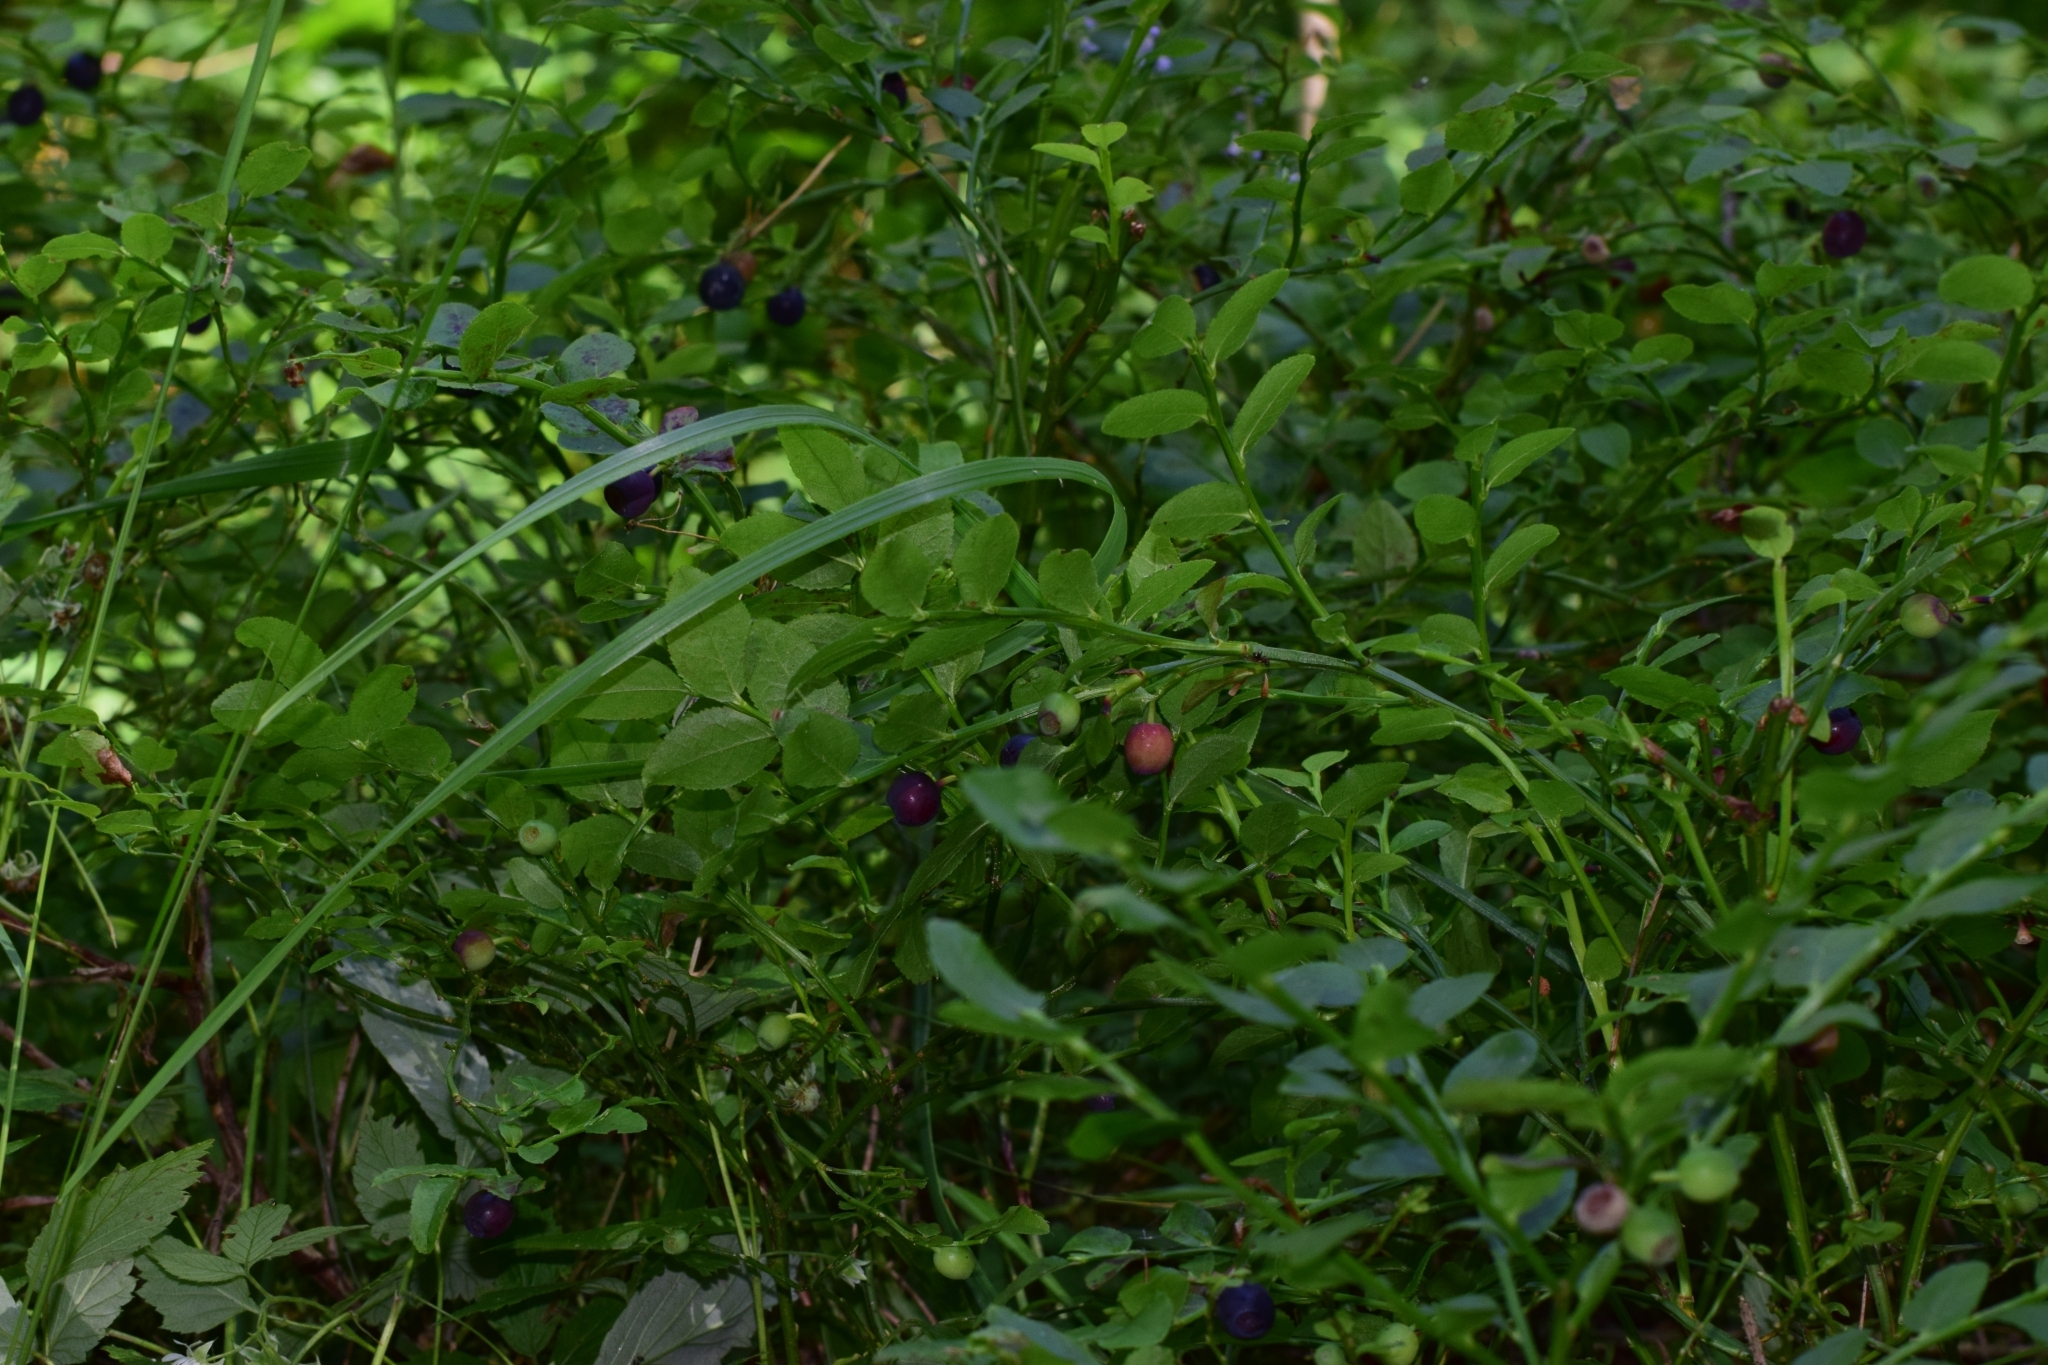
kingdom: Plantae
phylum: Tracheophyta
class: Magnoliopsida
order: Ericales
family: Ericaceae
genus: Vaccinium
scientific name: Vaccinium myrtillus
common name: Bilberry
